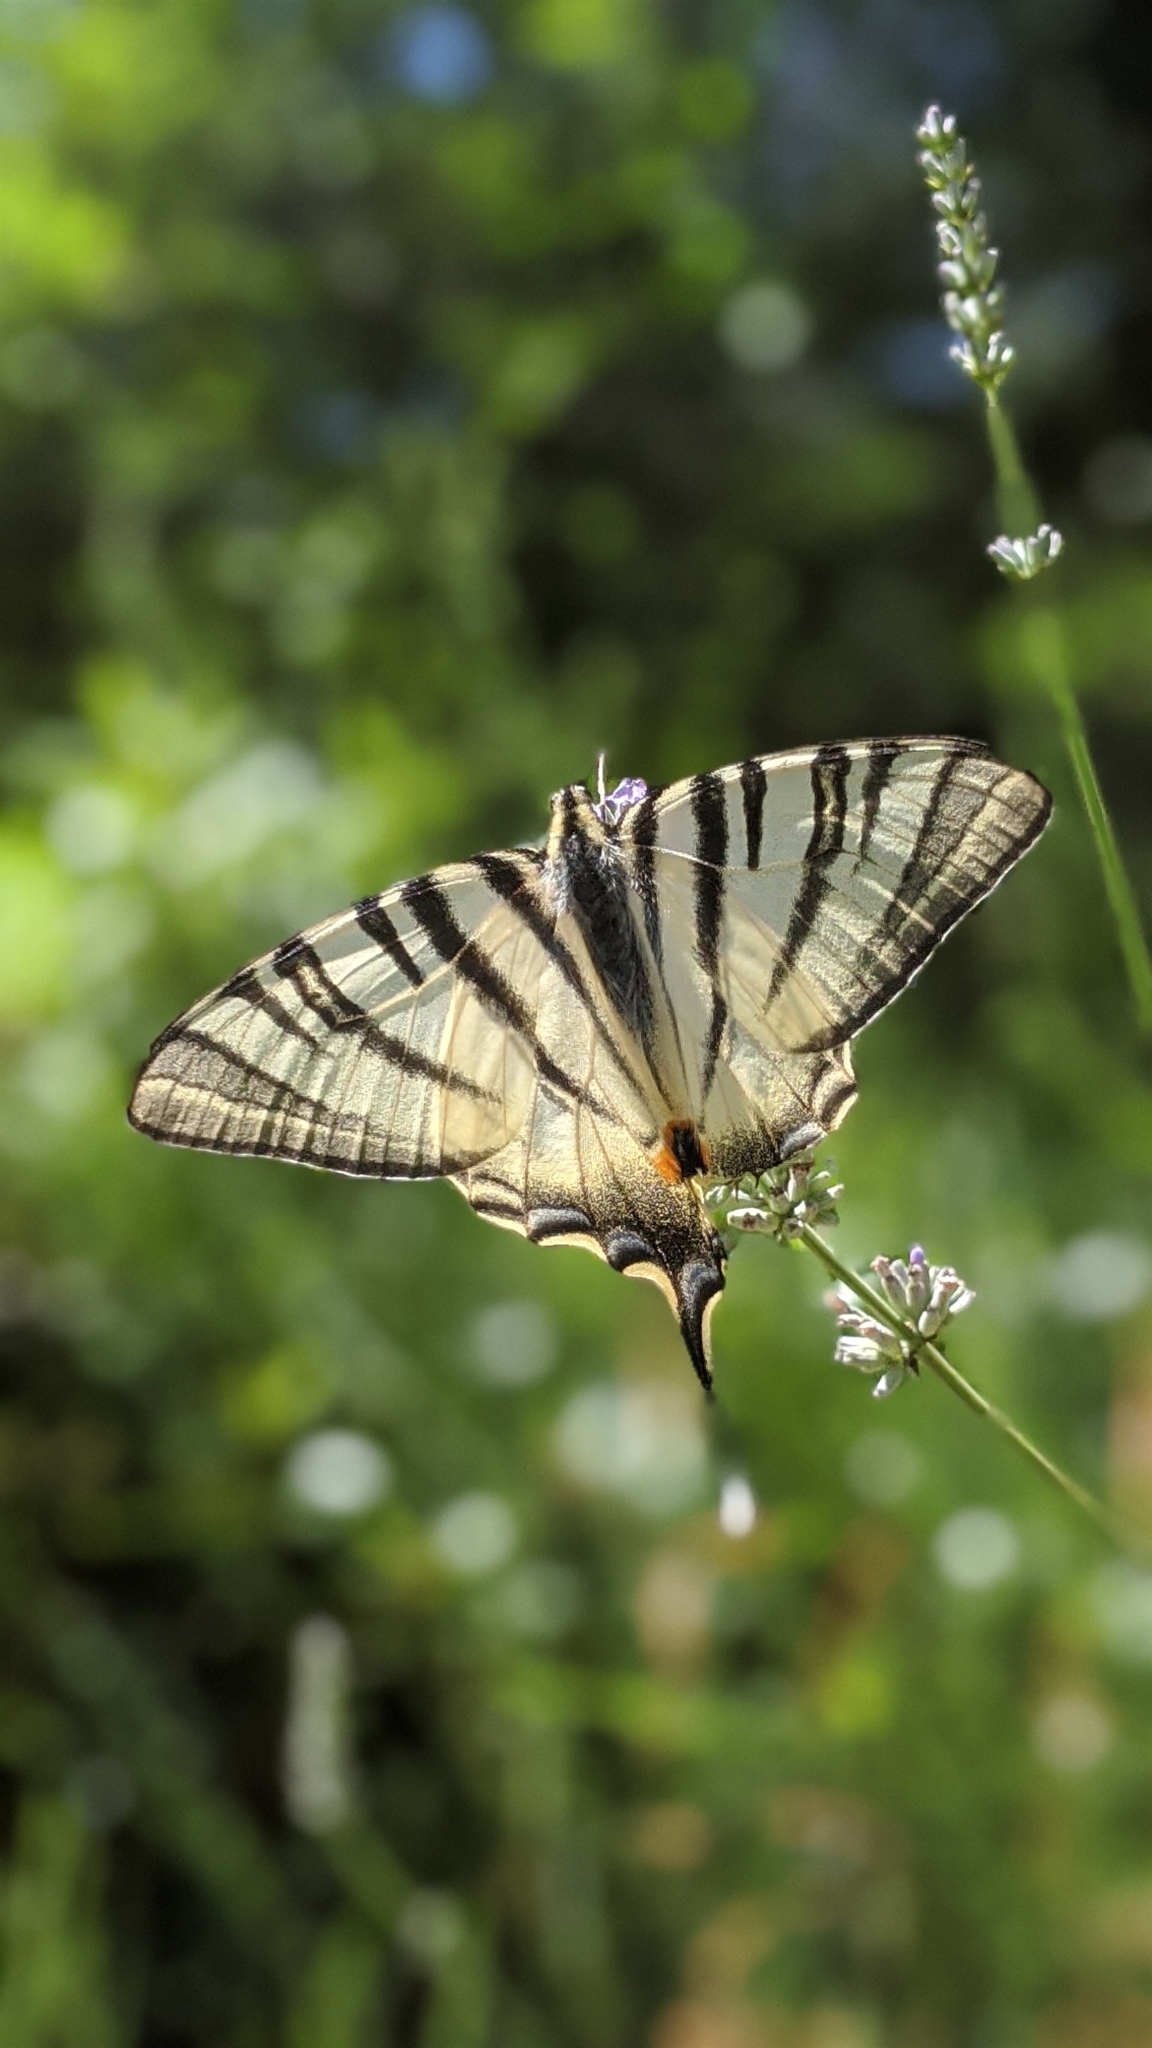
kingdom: Animalia
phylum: Arthropoda
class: Insecta
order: Lepidoptera
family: Papilionidae
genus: Iphiclides
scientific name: Iphiclides podalirius
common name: Scarce swallowtail
